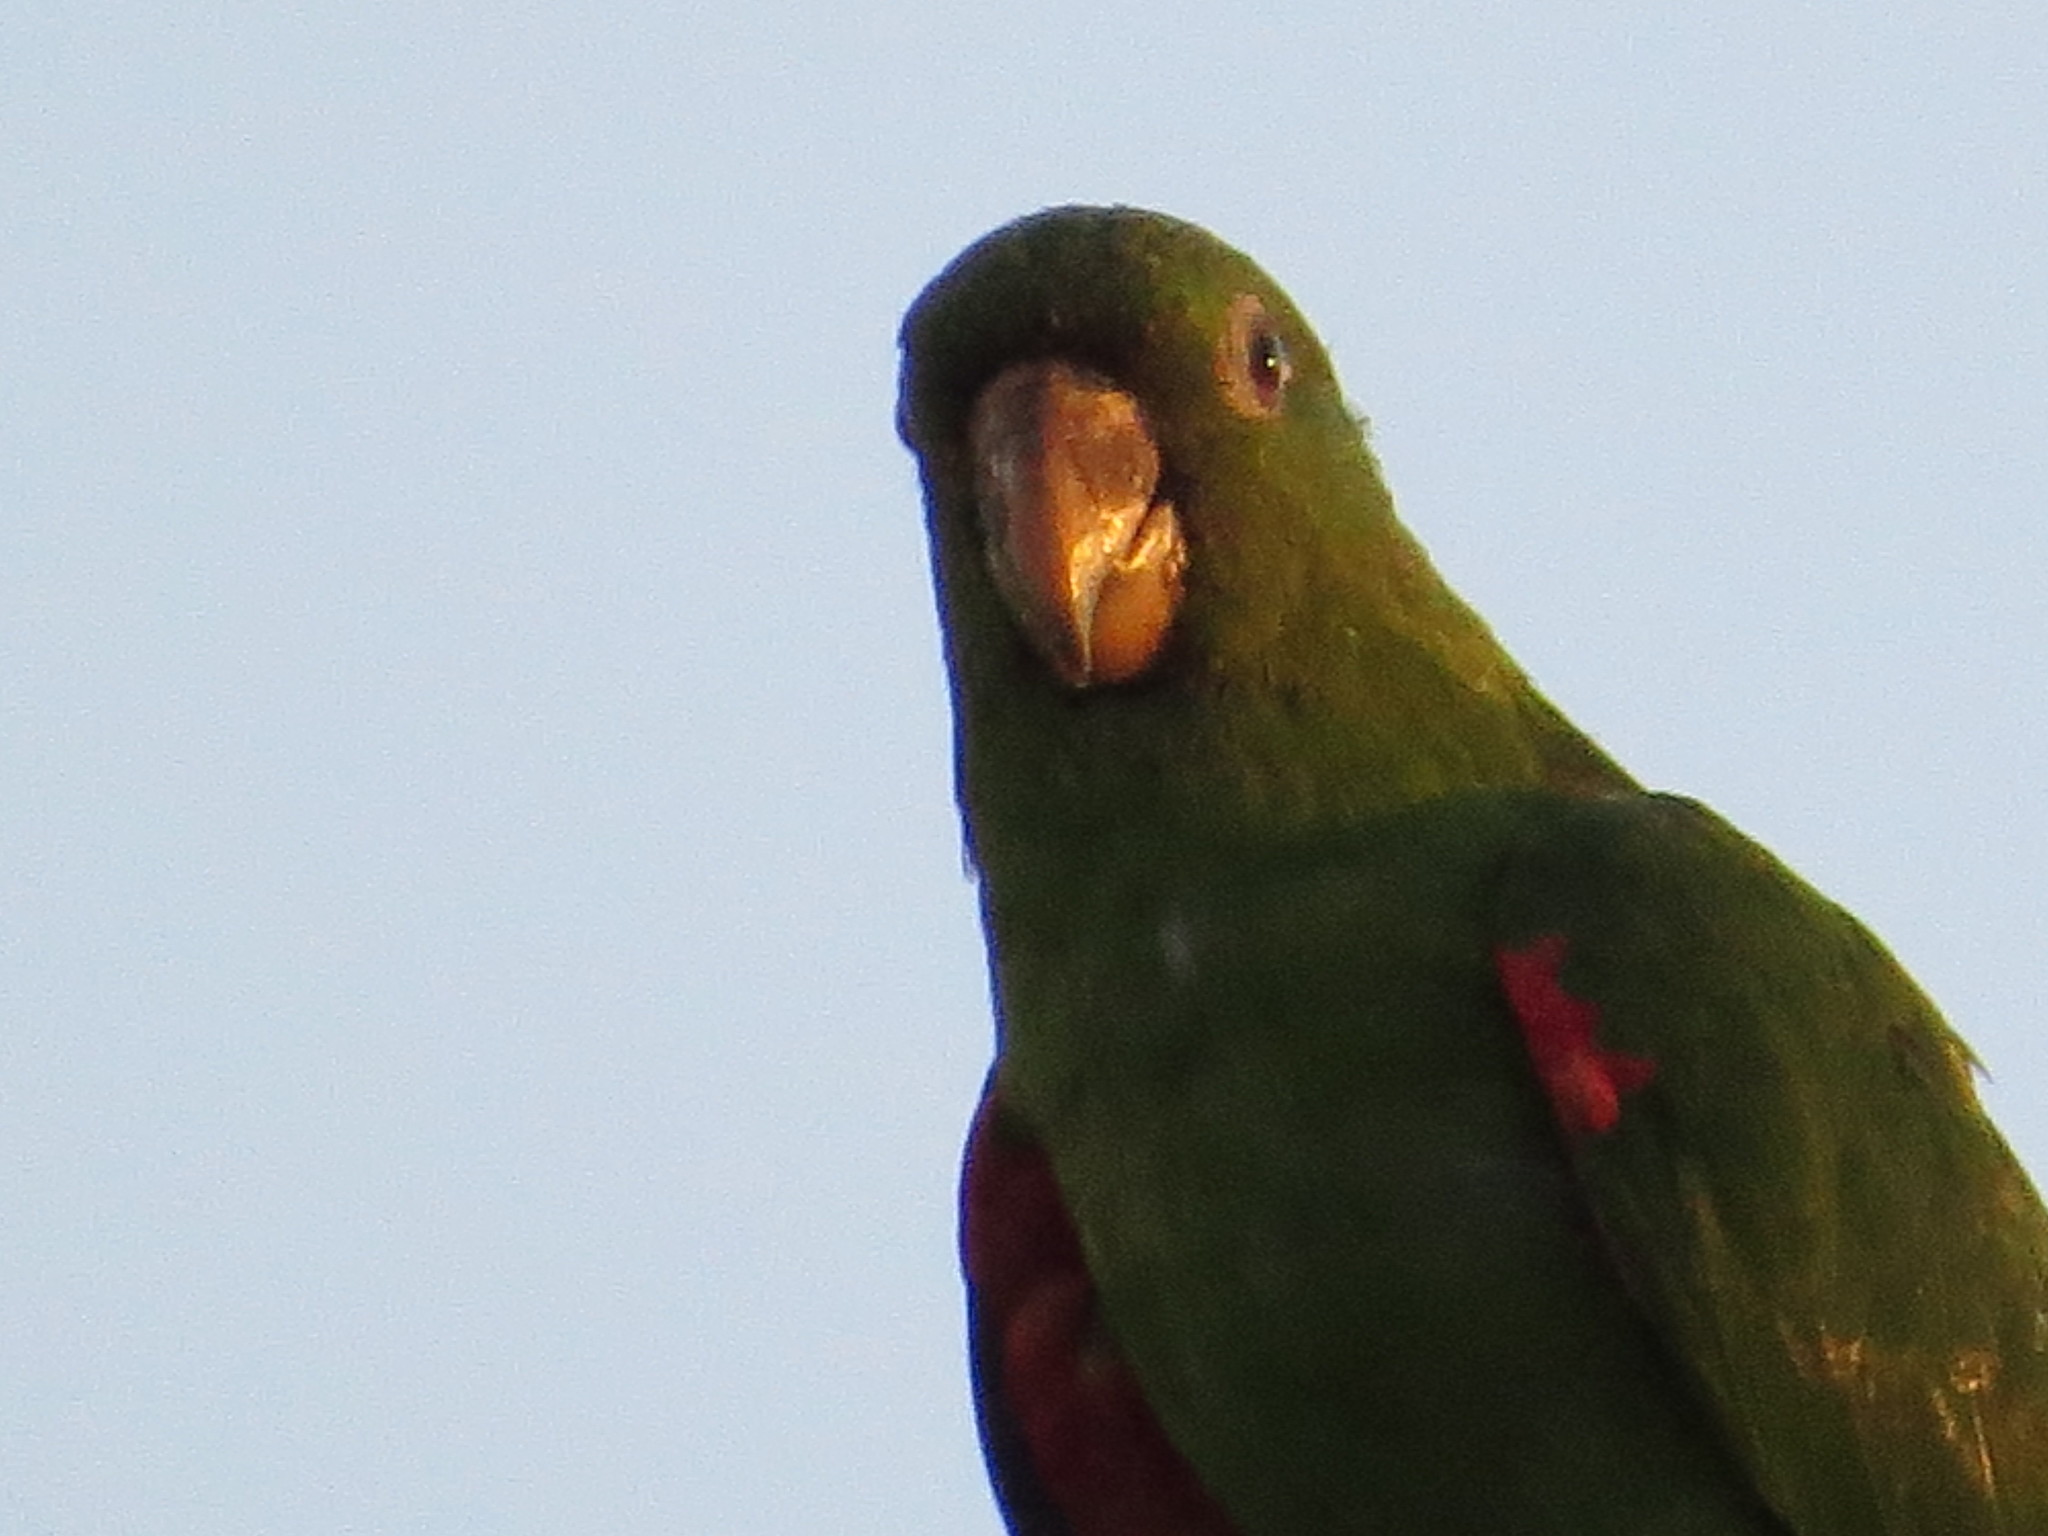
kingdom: Animalia
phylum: Chordata
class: Aves
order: Psittaciformes
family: Psittacidae
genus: Aratinga
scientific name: Aratinga leucophthalma
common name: White-eyed parakeet
